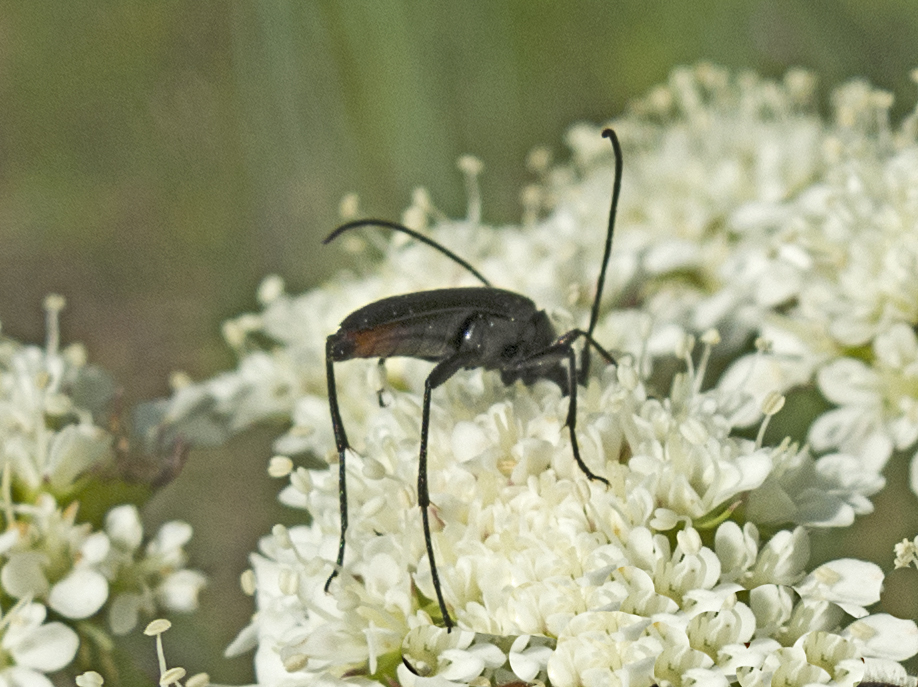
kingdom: Animalia
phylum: Arthropoda
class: Insecta
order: Coleoptera
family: Cerambycidae
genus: Stenurella
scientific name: Stenurella nigra
